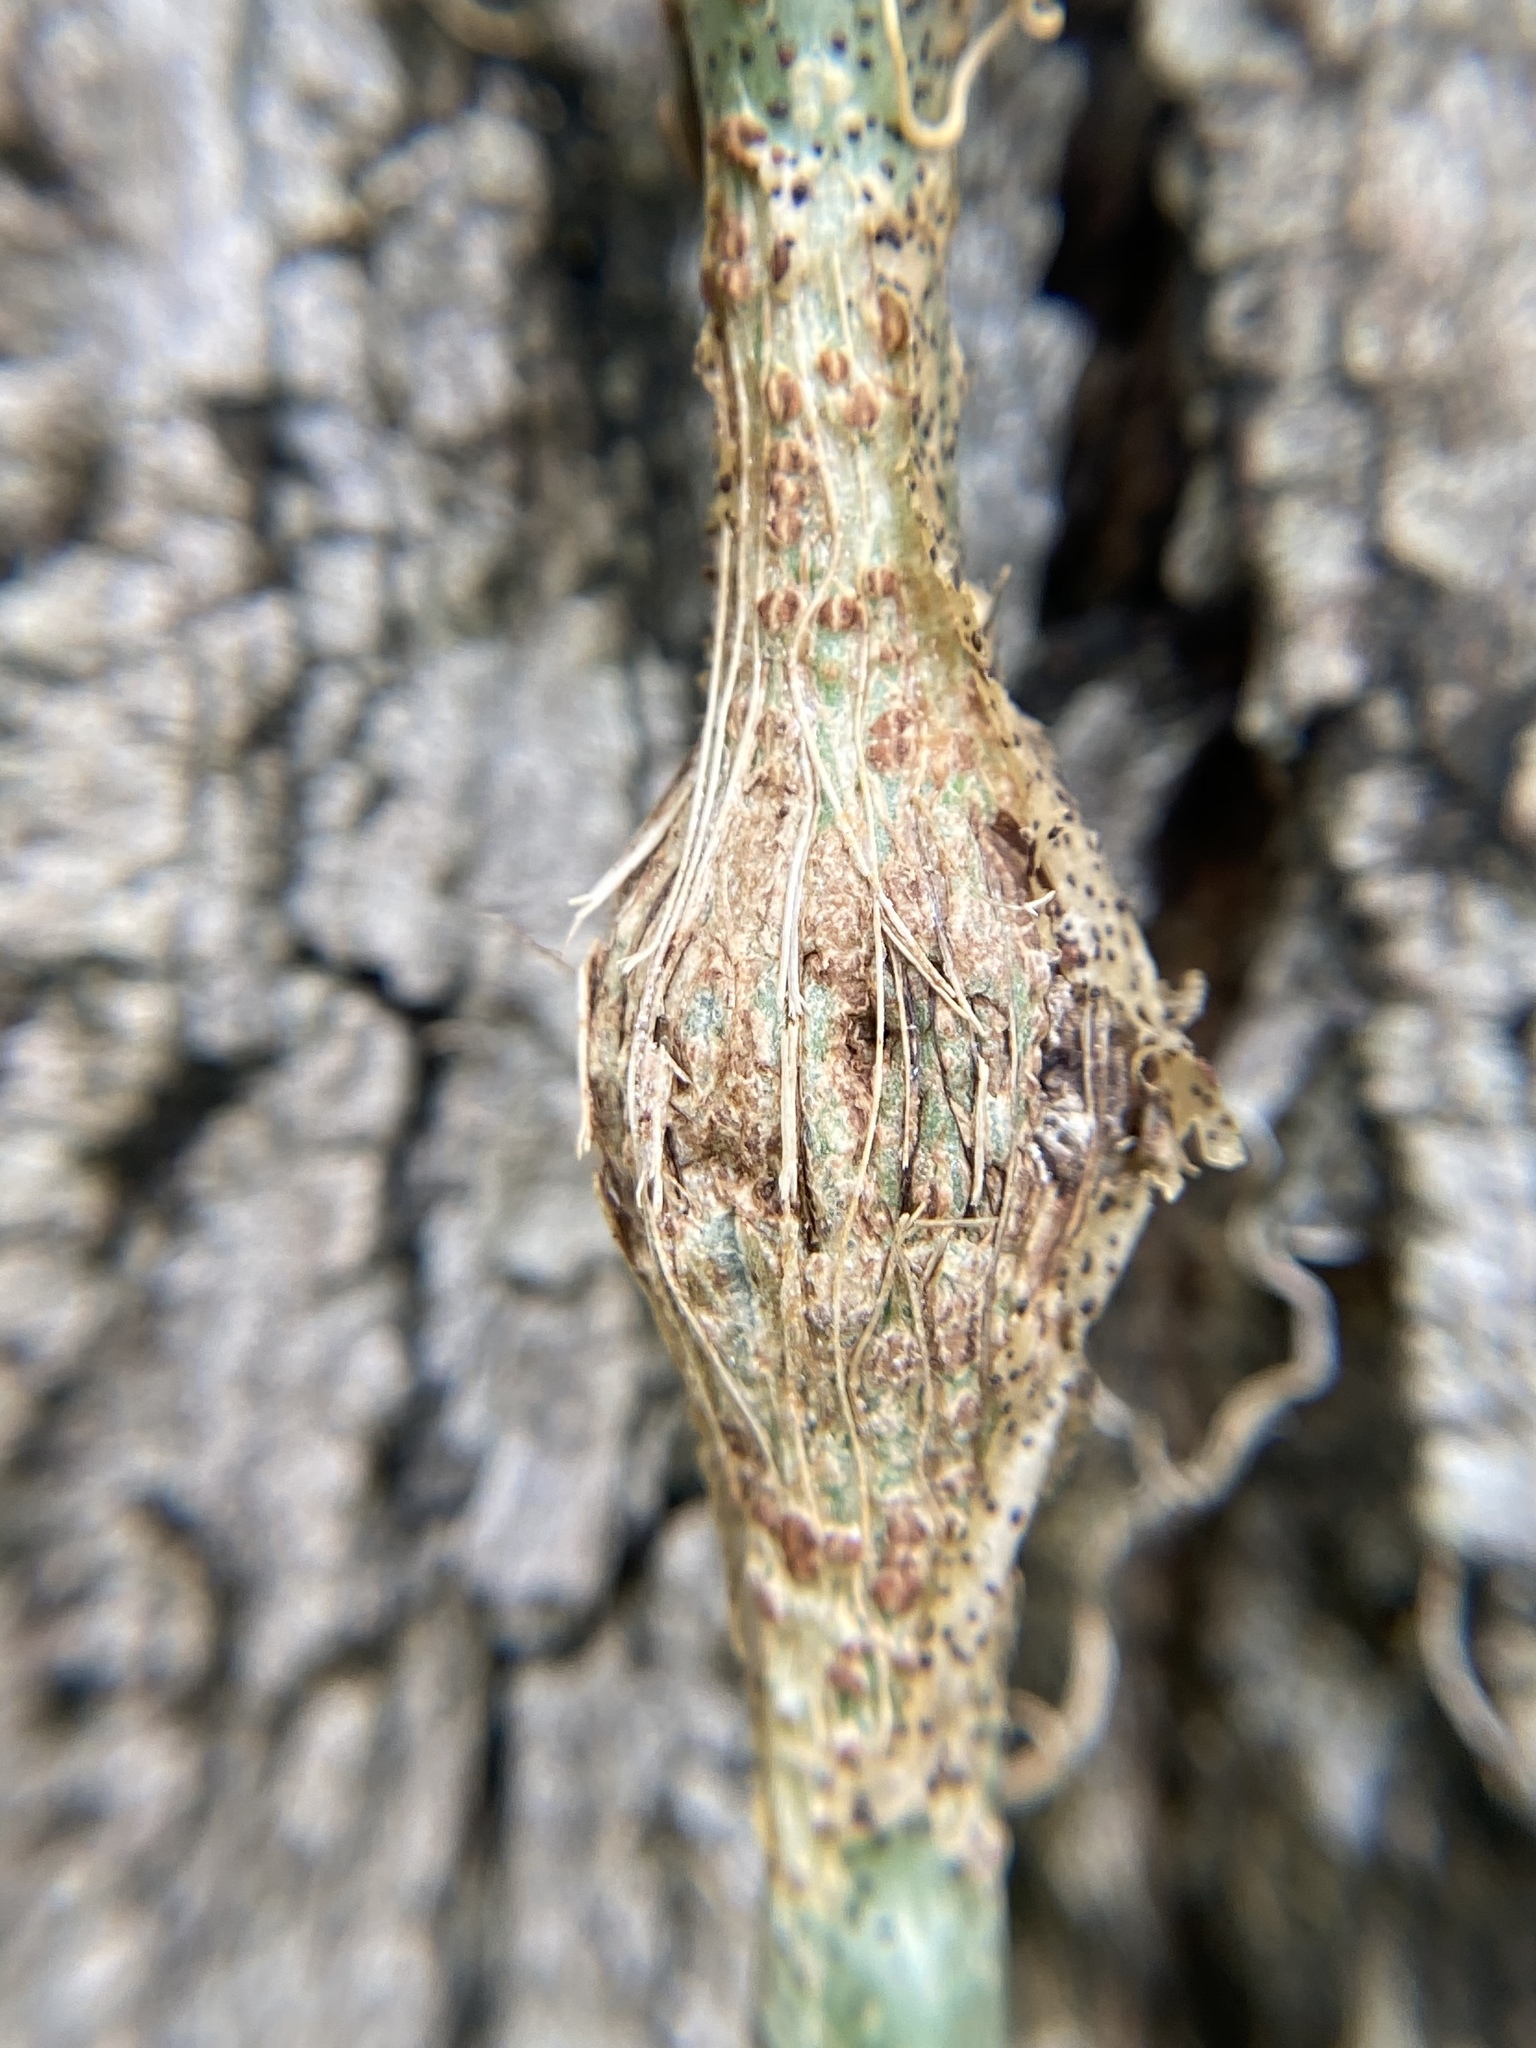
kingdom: Animalia
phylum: Arthropoda
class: Insecta
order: Coleoptera
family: Eurhynchidae
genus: Eurhinus
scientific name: Eurhinus magnificus
